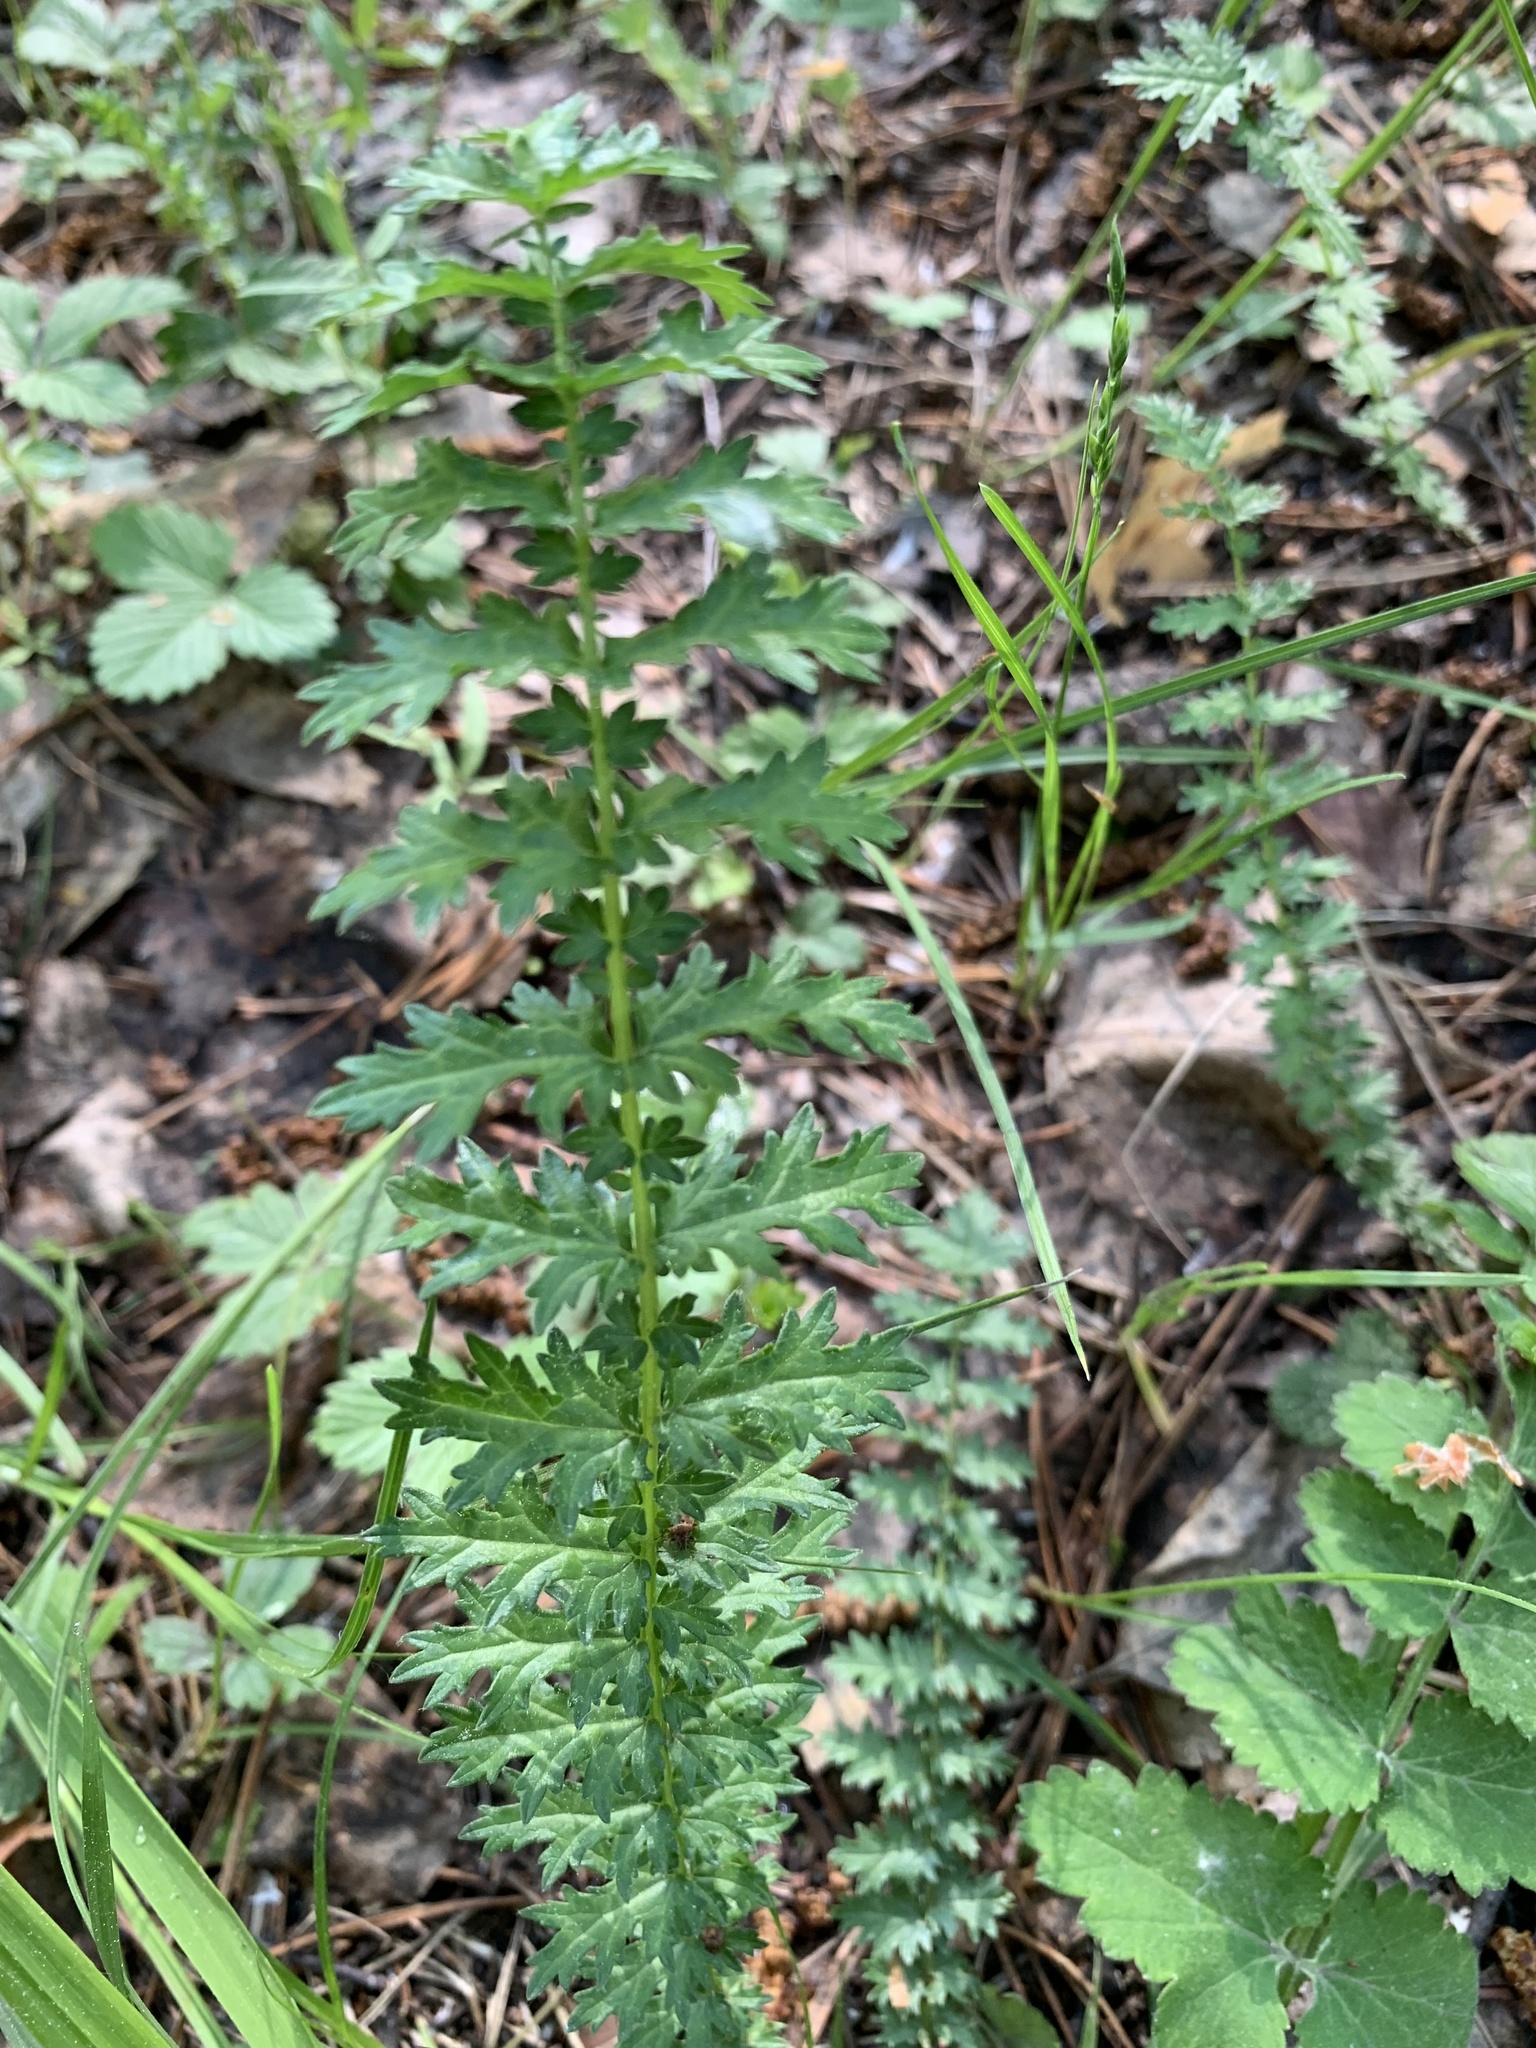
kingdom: Plantae
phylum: Tracheophyta
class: Magnoliopsida
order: Rosales
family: Rosaceae
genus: Filipendula
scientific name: Filipendula vulgaris
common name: Dropwort
